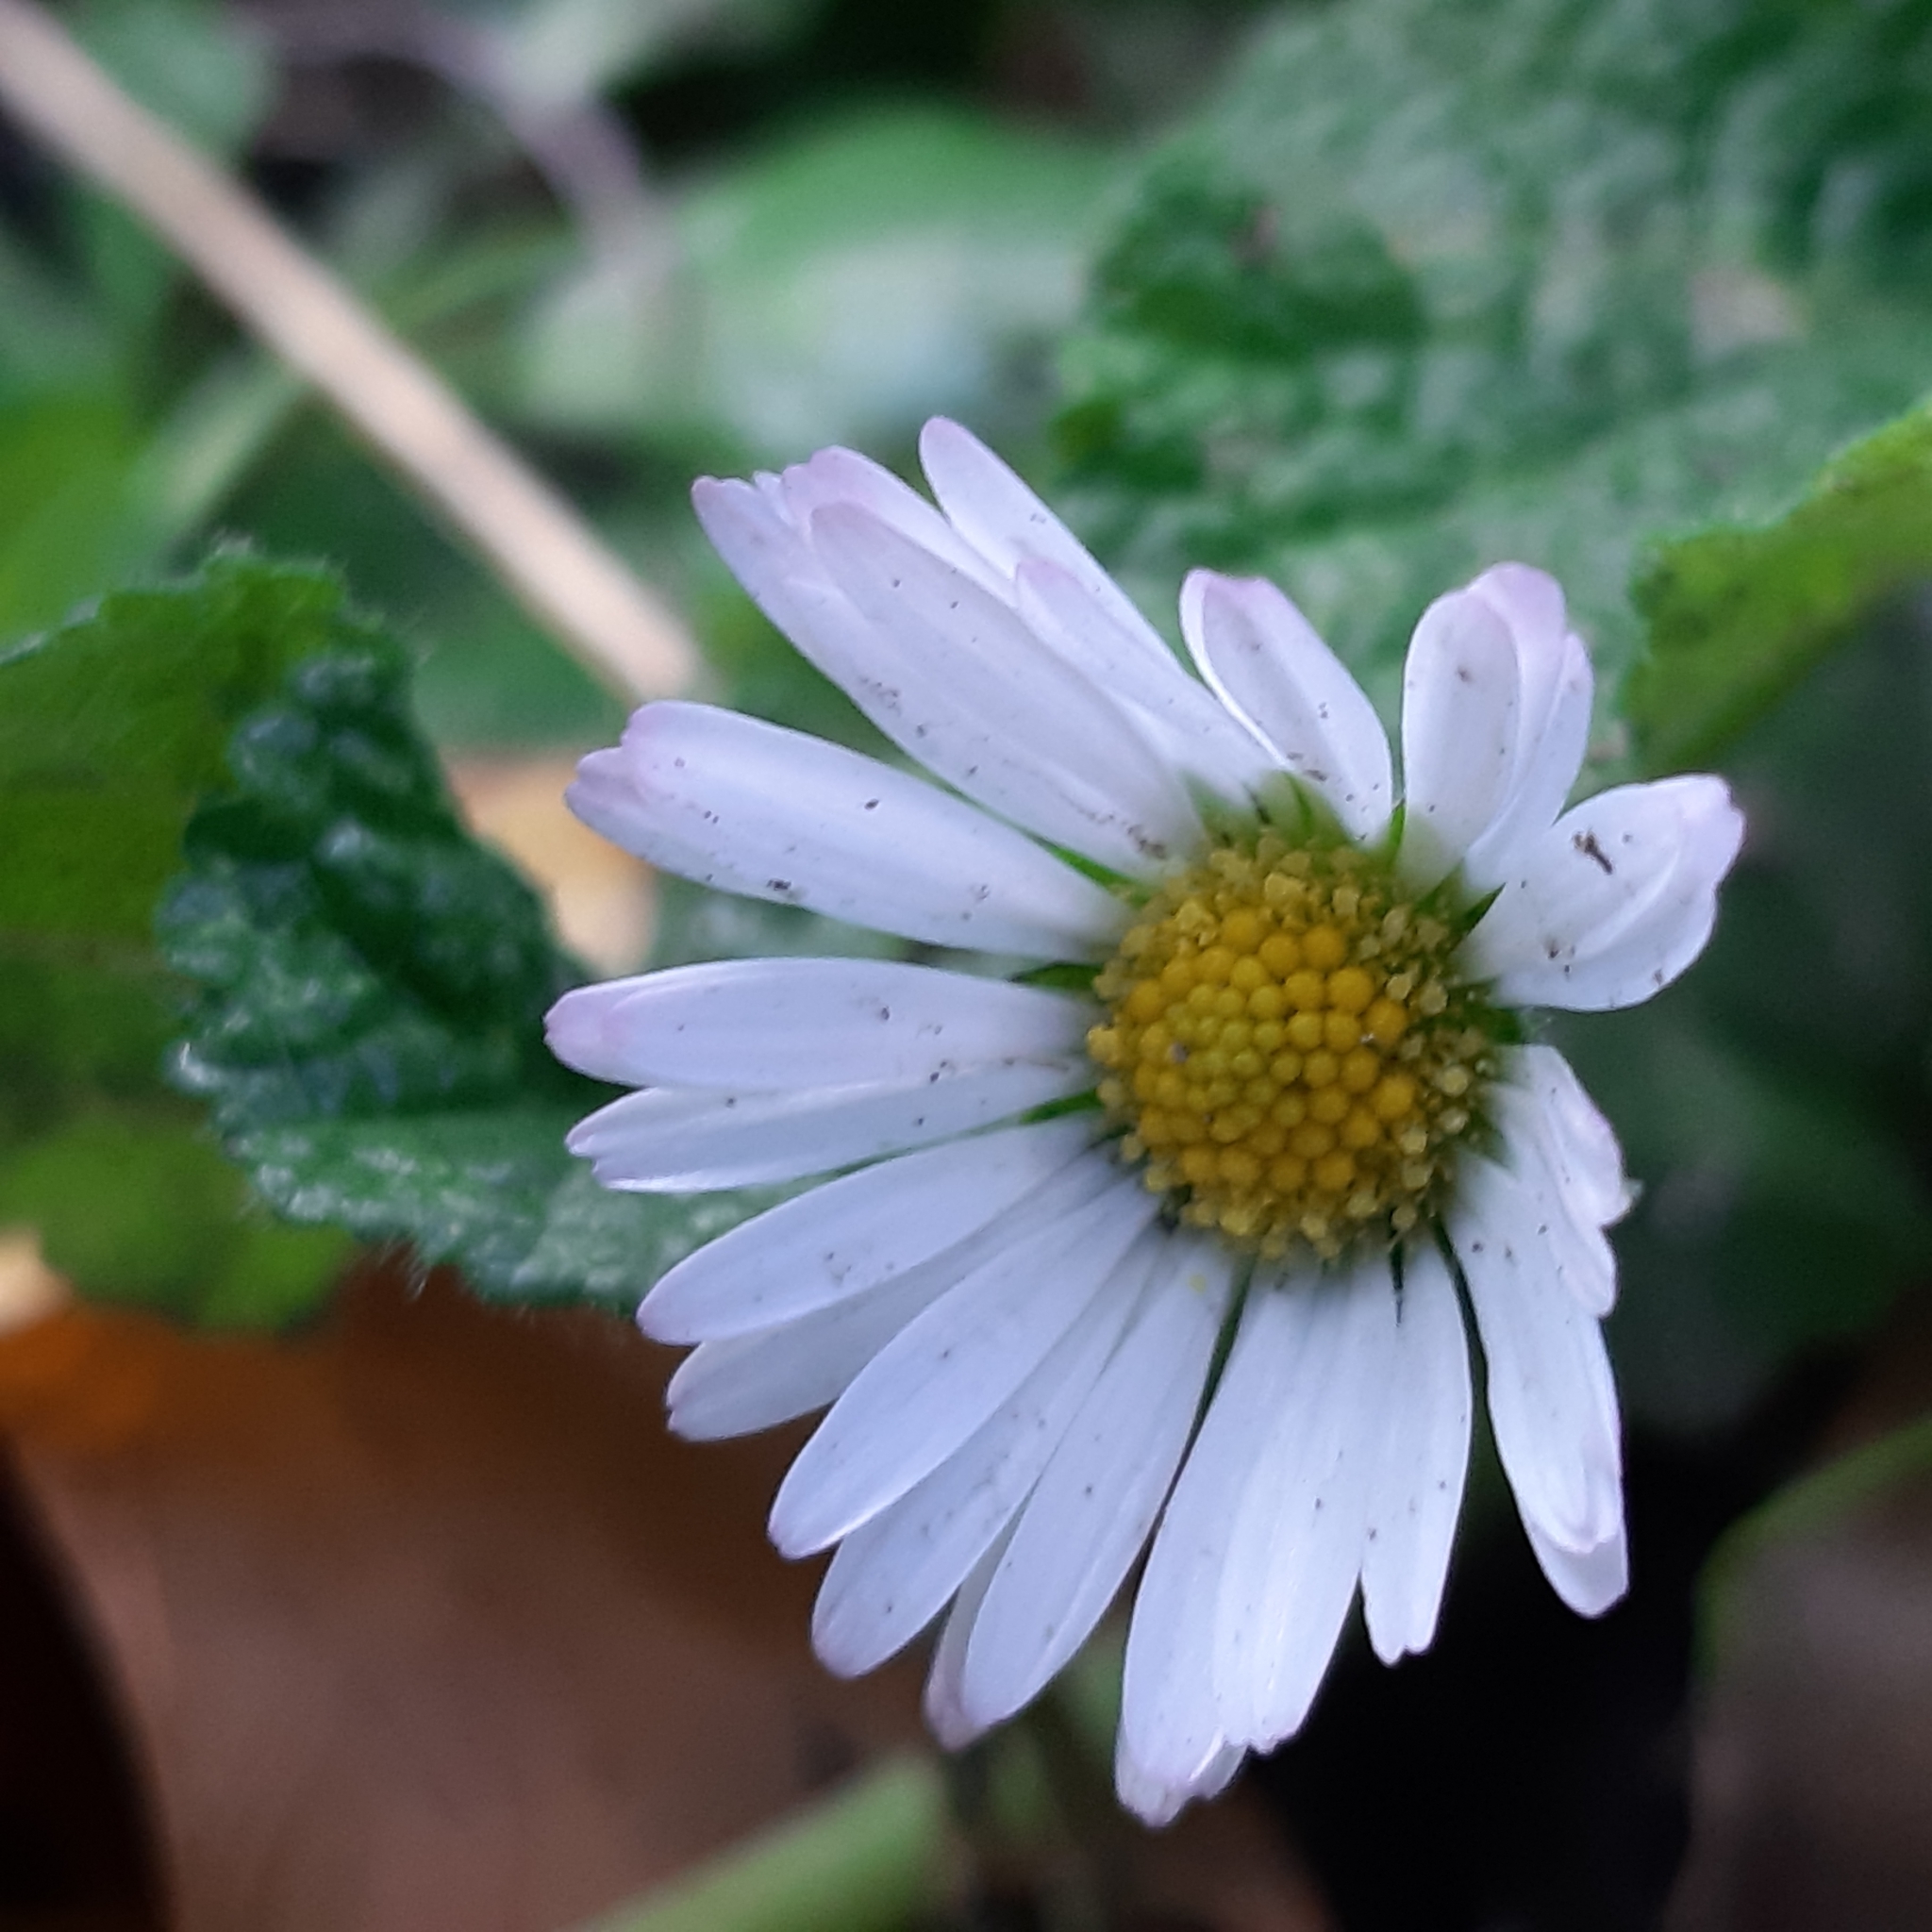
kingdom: Plantae
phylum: Tracheophyta
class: Magnoliopsida
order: Asterales
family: Asteraceae
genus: Bellis
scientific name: Bellis perennis
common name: Lawndaisy
